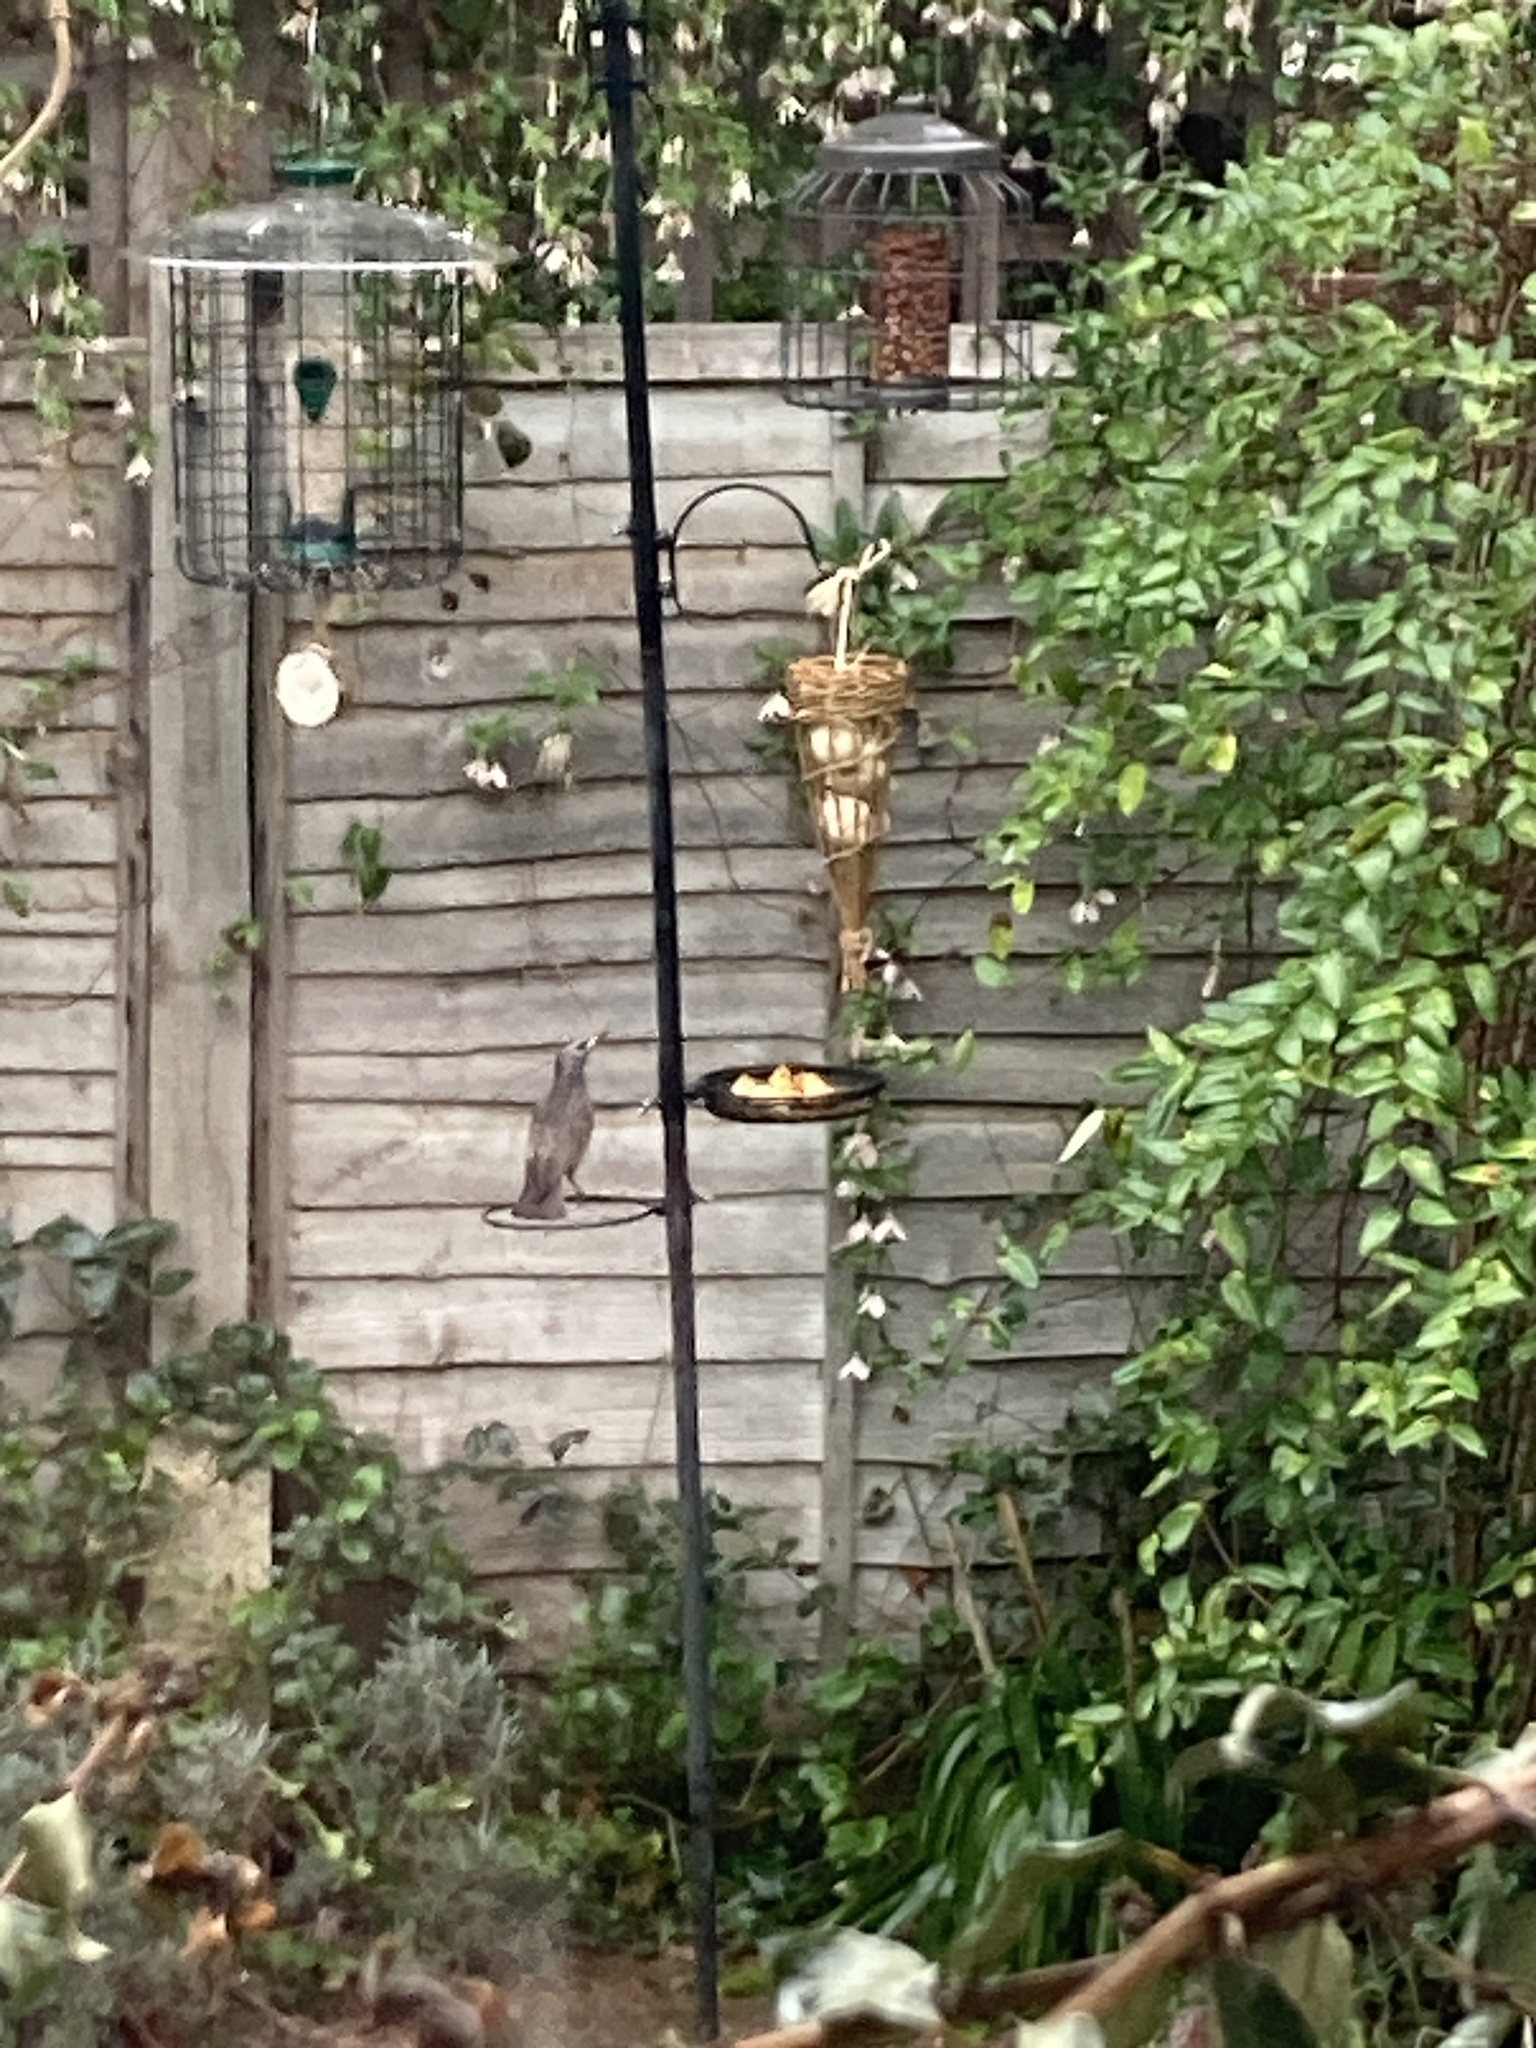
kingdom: Animalia
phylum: Chordata
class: Aves
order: Passeriformes
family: Sturnidae
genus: Sturnus
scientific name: Sturnus vulgaris
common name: Common starling
